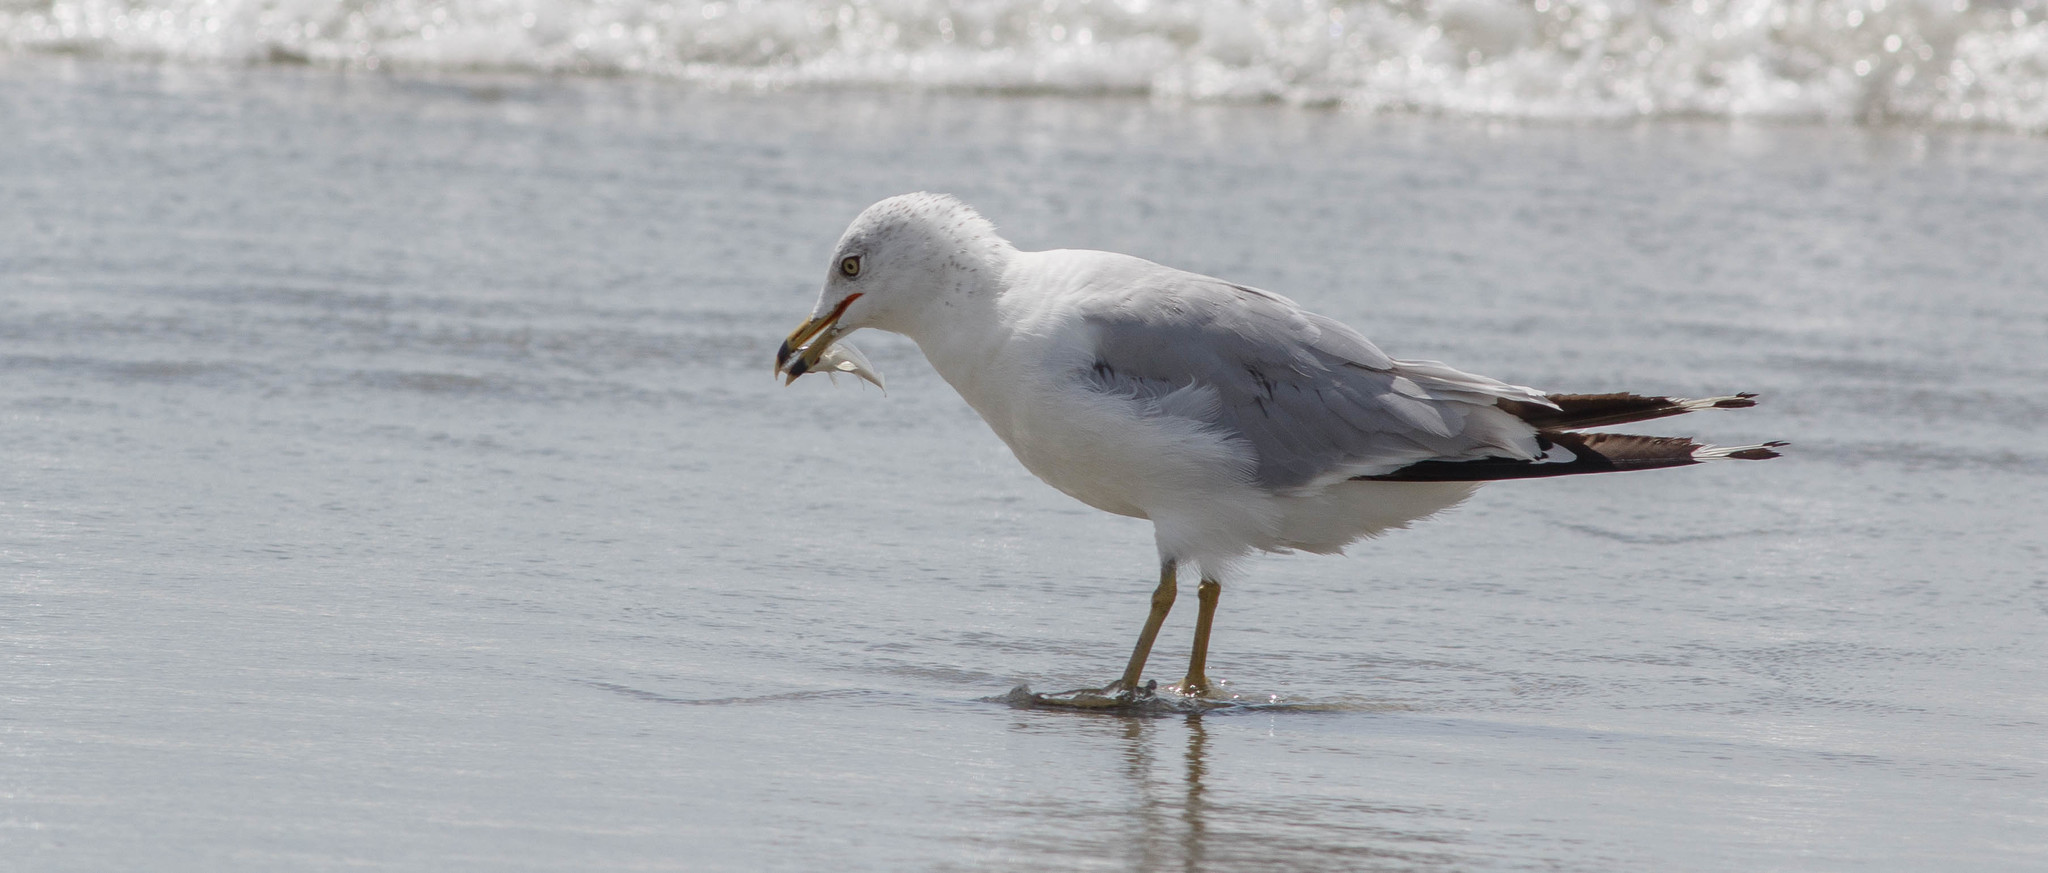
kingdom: Animalia
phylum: Chordata
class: Aves
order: Charadriiformes
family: Laridae
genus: Larus
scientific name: Larus delawarensis
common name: Ring-billed gull
